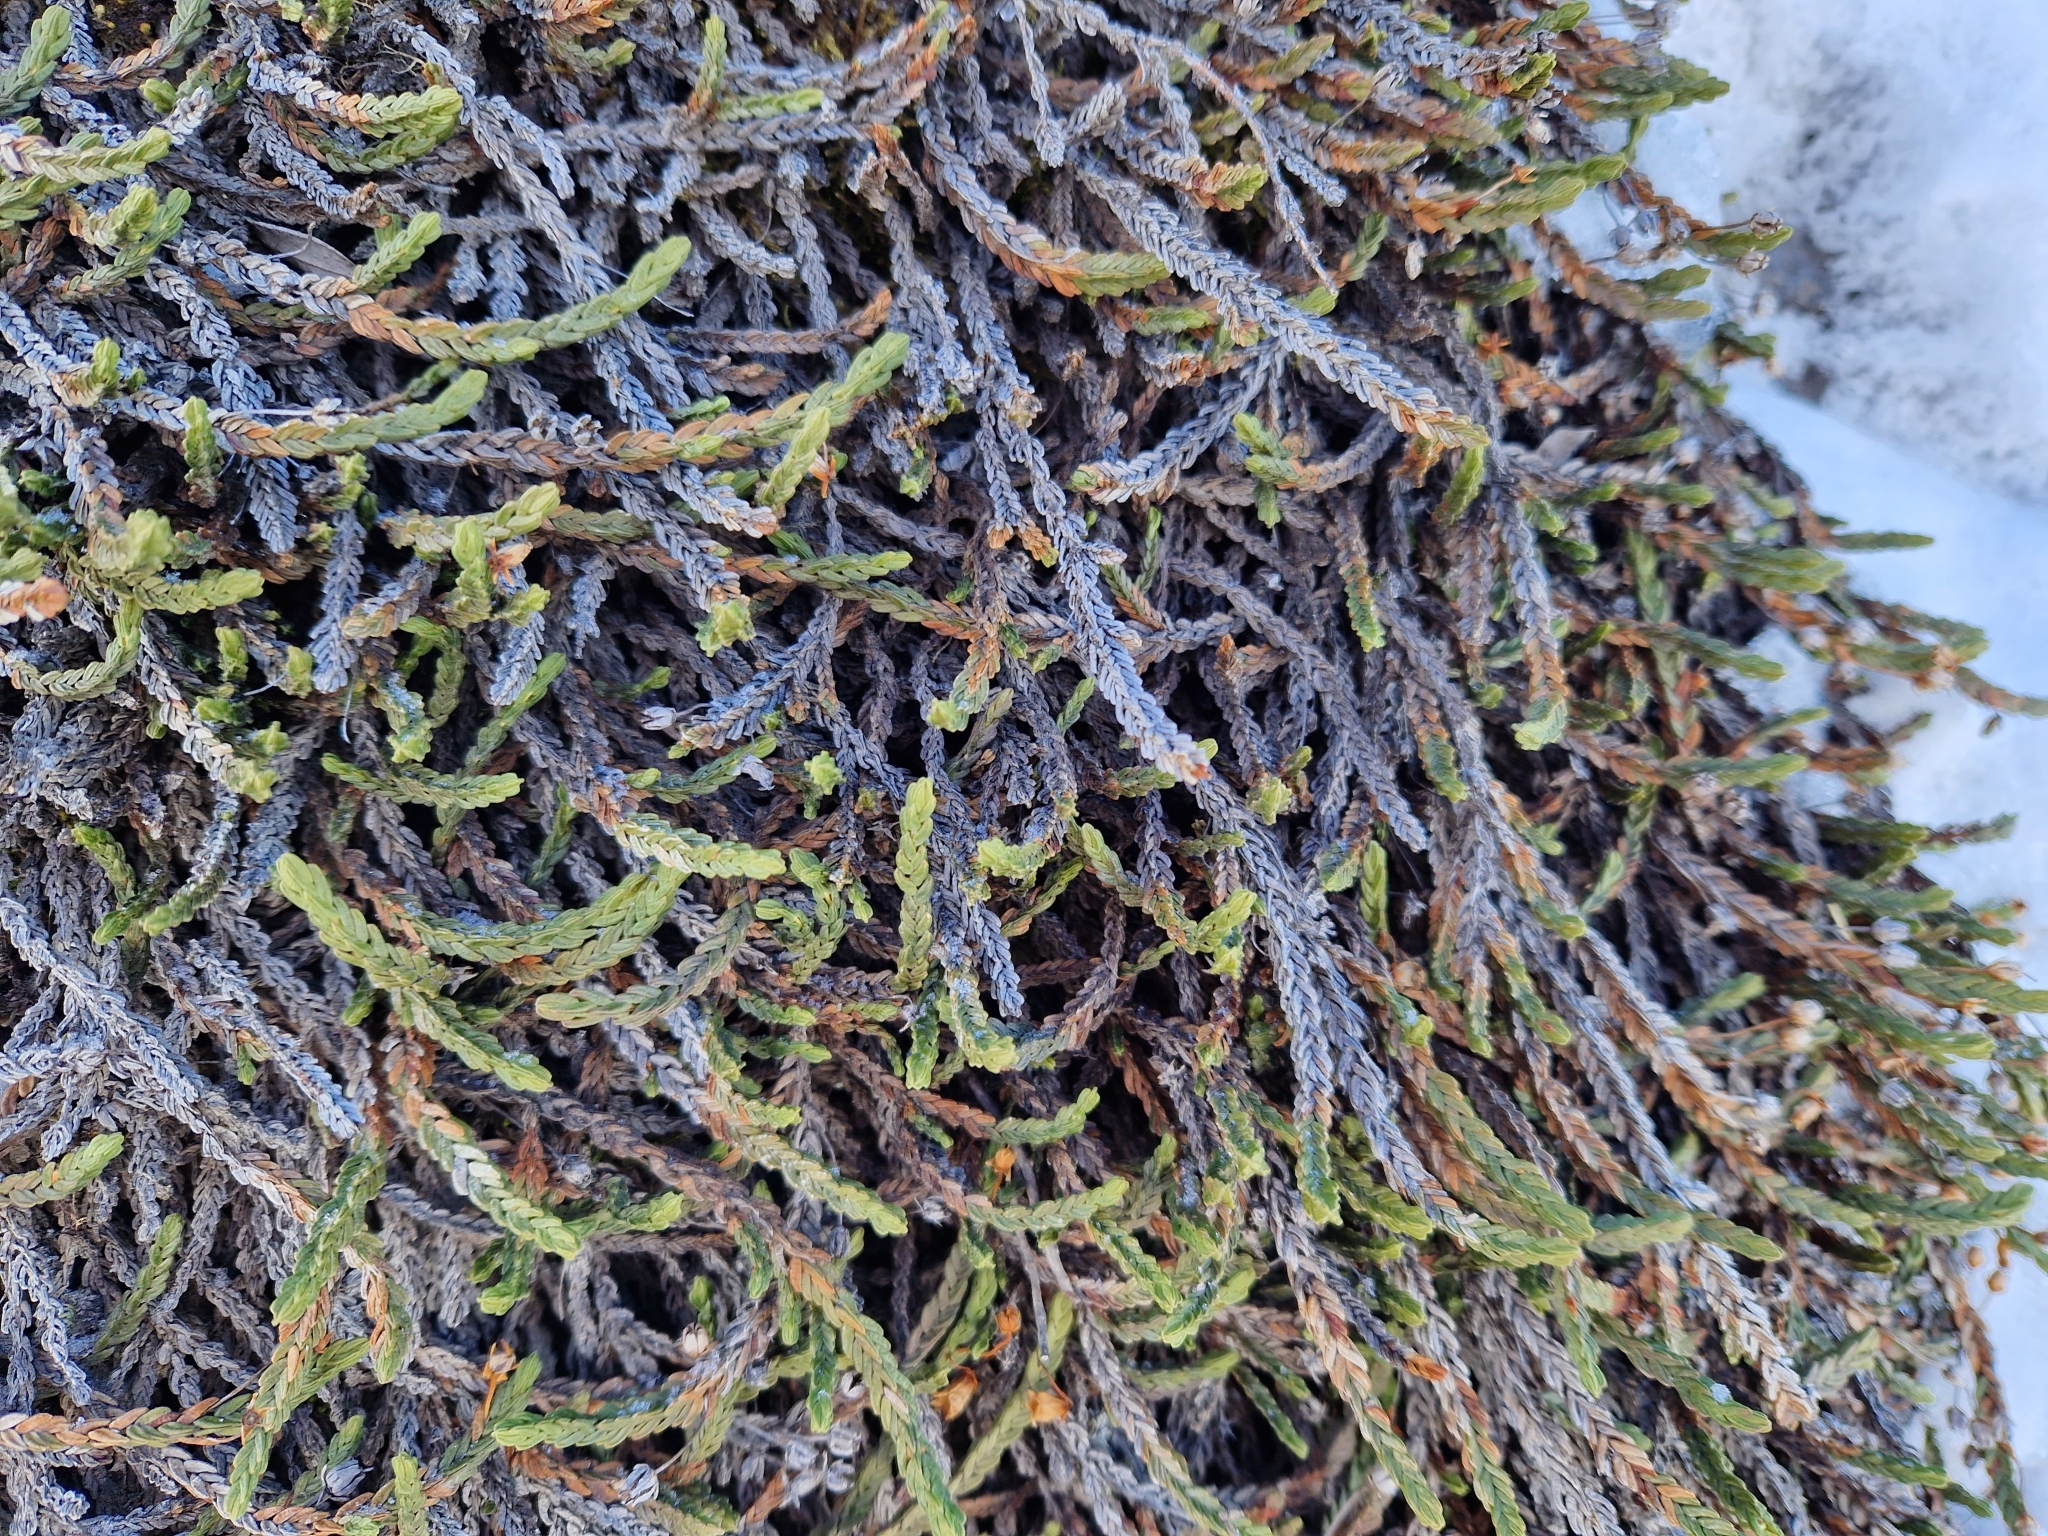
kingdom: Plantae
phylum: Tracheophyta
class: Magnoliopsida
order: Ericales
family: Ericaceae
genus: Cassiope
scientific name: Cassiope tetragona
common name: Arctic bell heather
